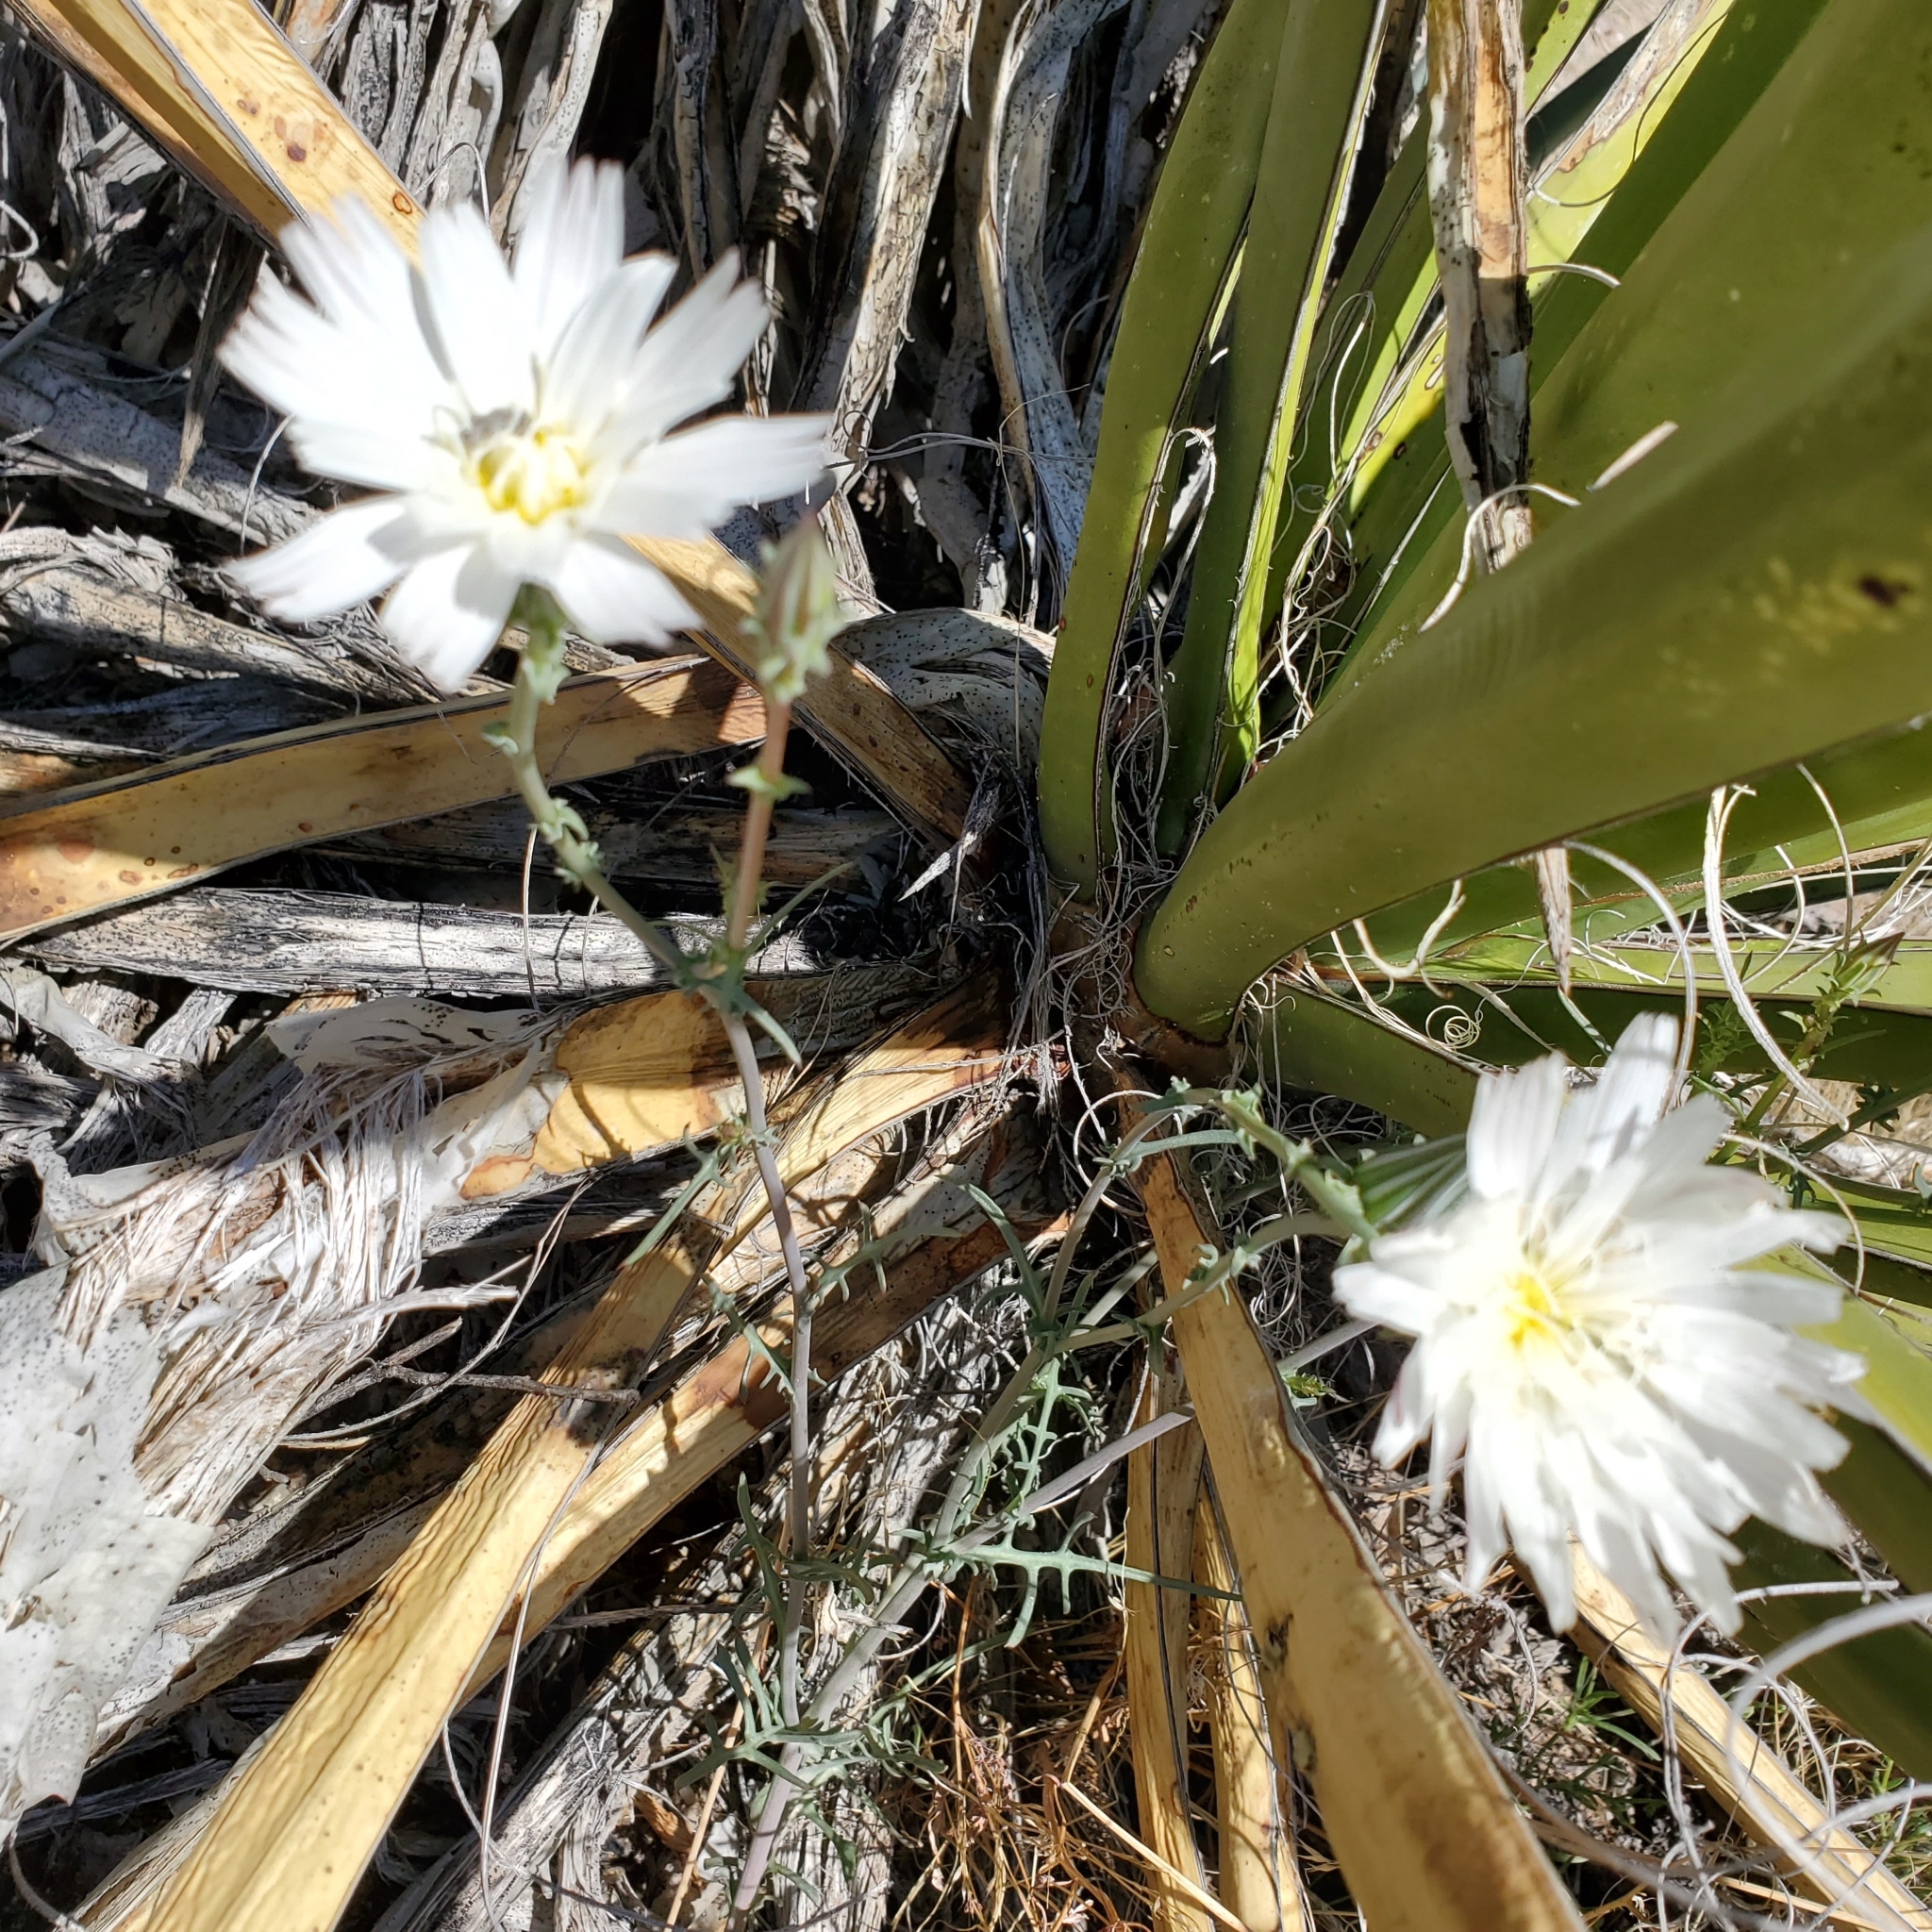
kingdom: Plantae
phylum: Tracheophyta
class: Magnoliopsida
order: Asterales
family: Asteraceae
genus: Rafinesquia
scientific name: Rafinesquia neomexicana
